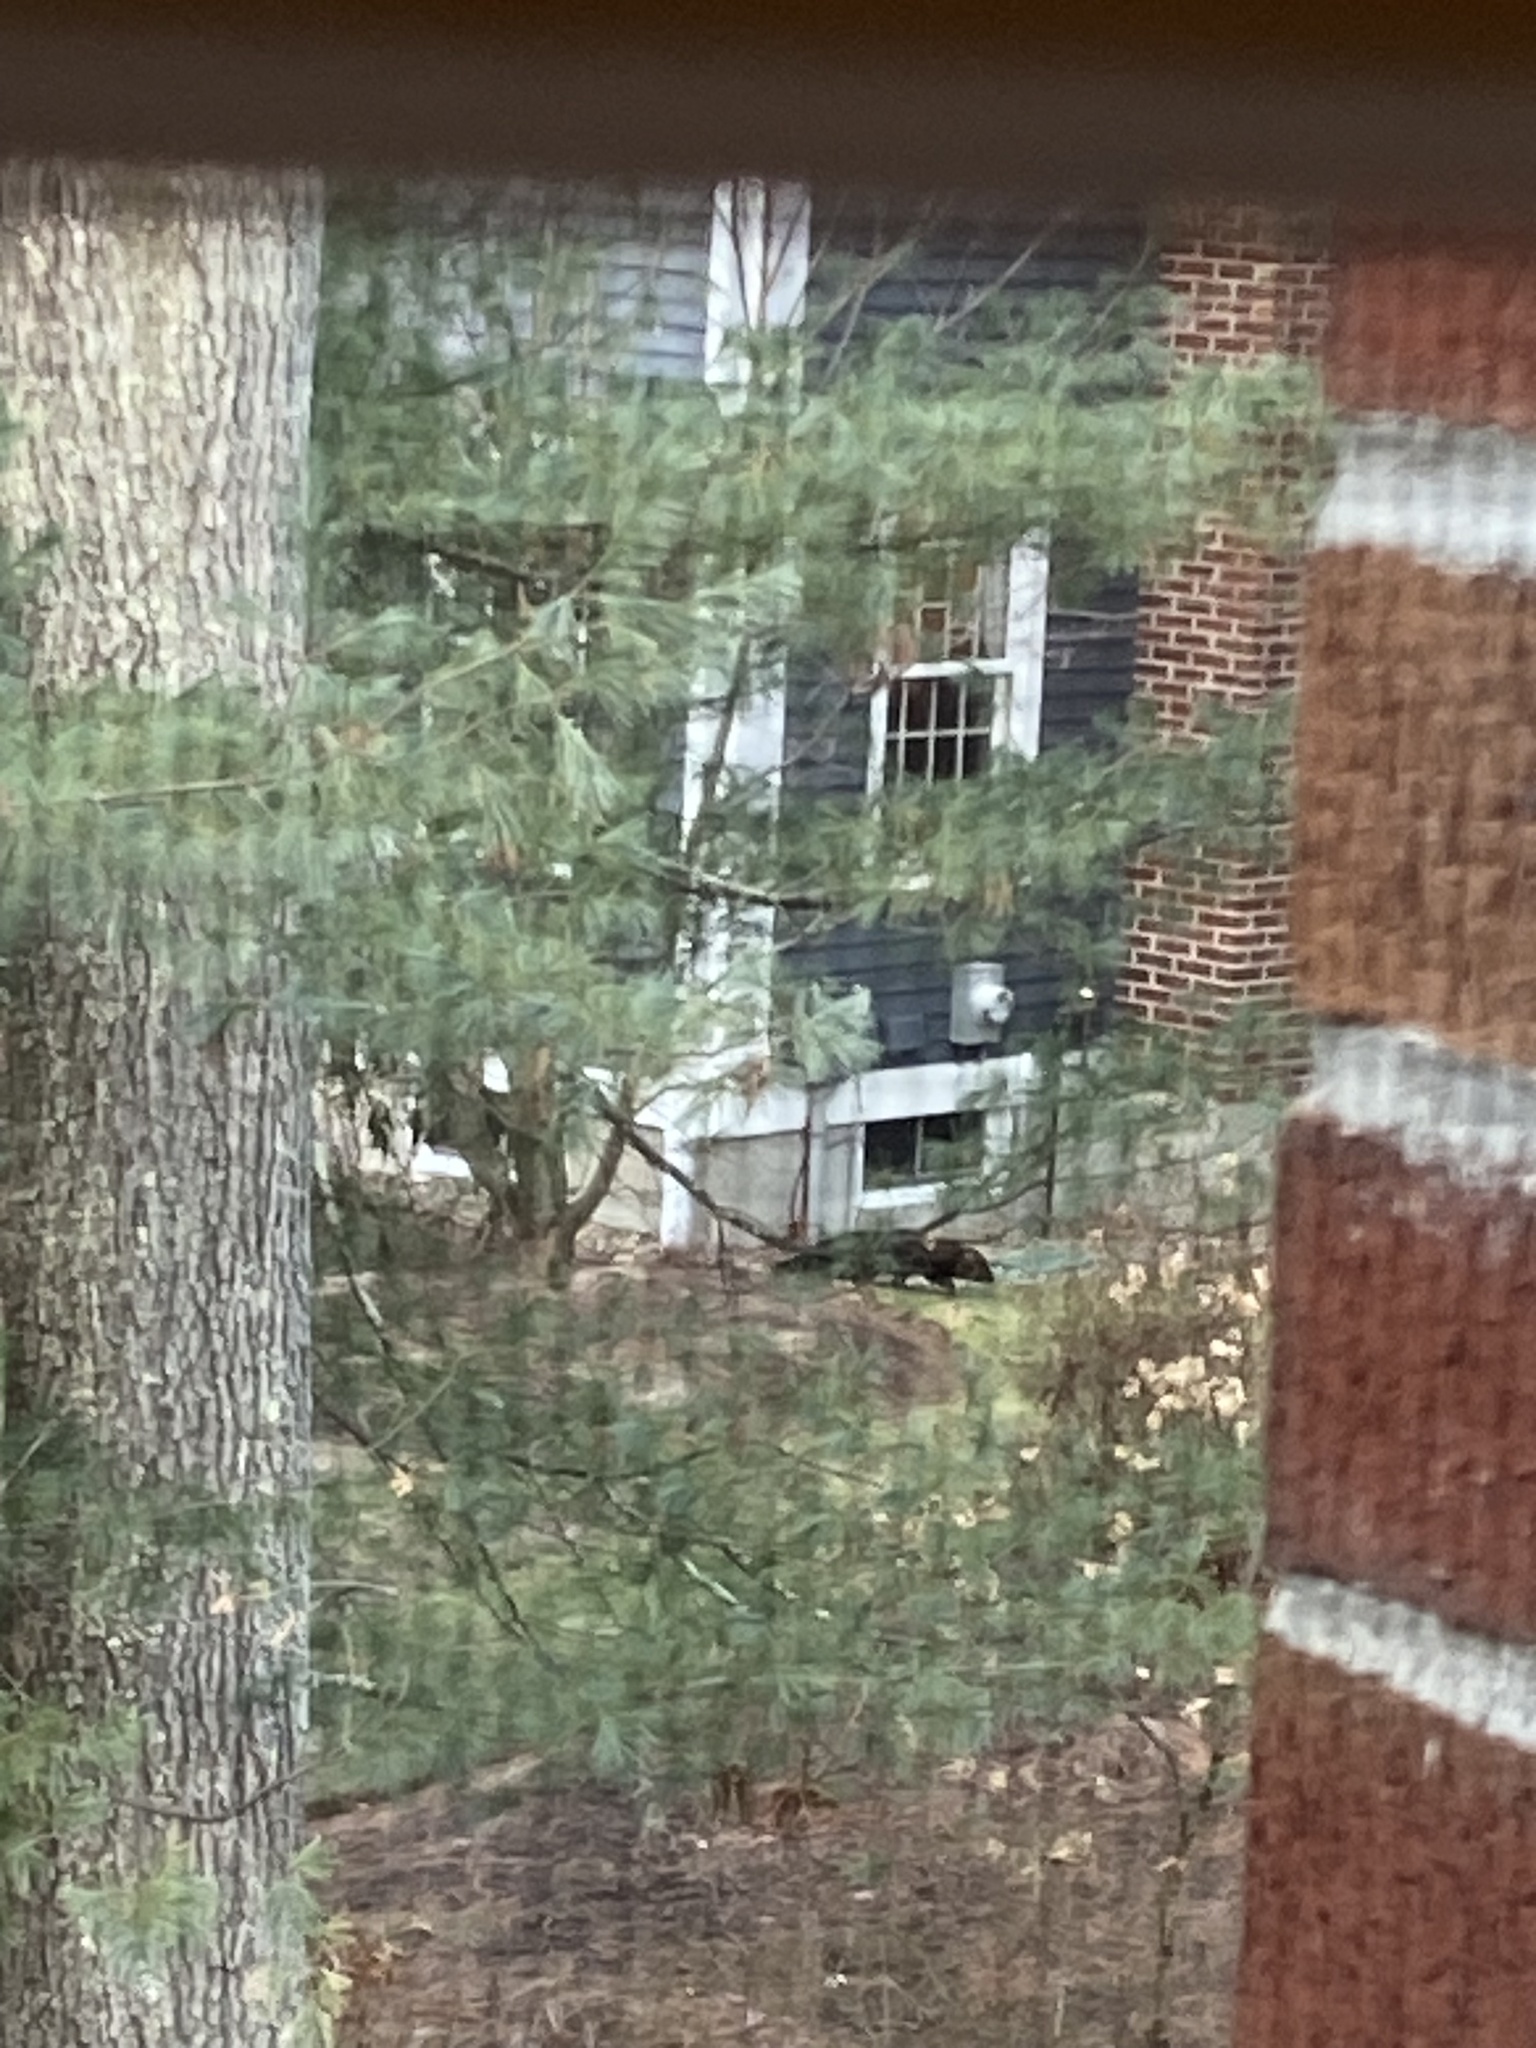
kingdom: Animalia
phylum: Chordata
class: Mammalia
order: Carnivora
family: Mustelidae
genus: Pekania
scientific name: Pekania pennanti
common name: Fisher
